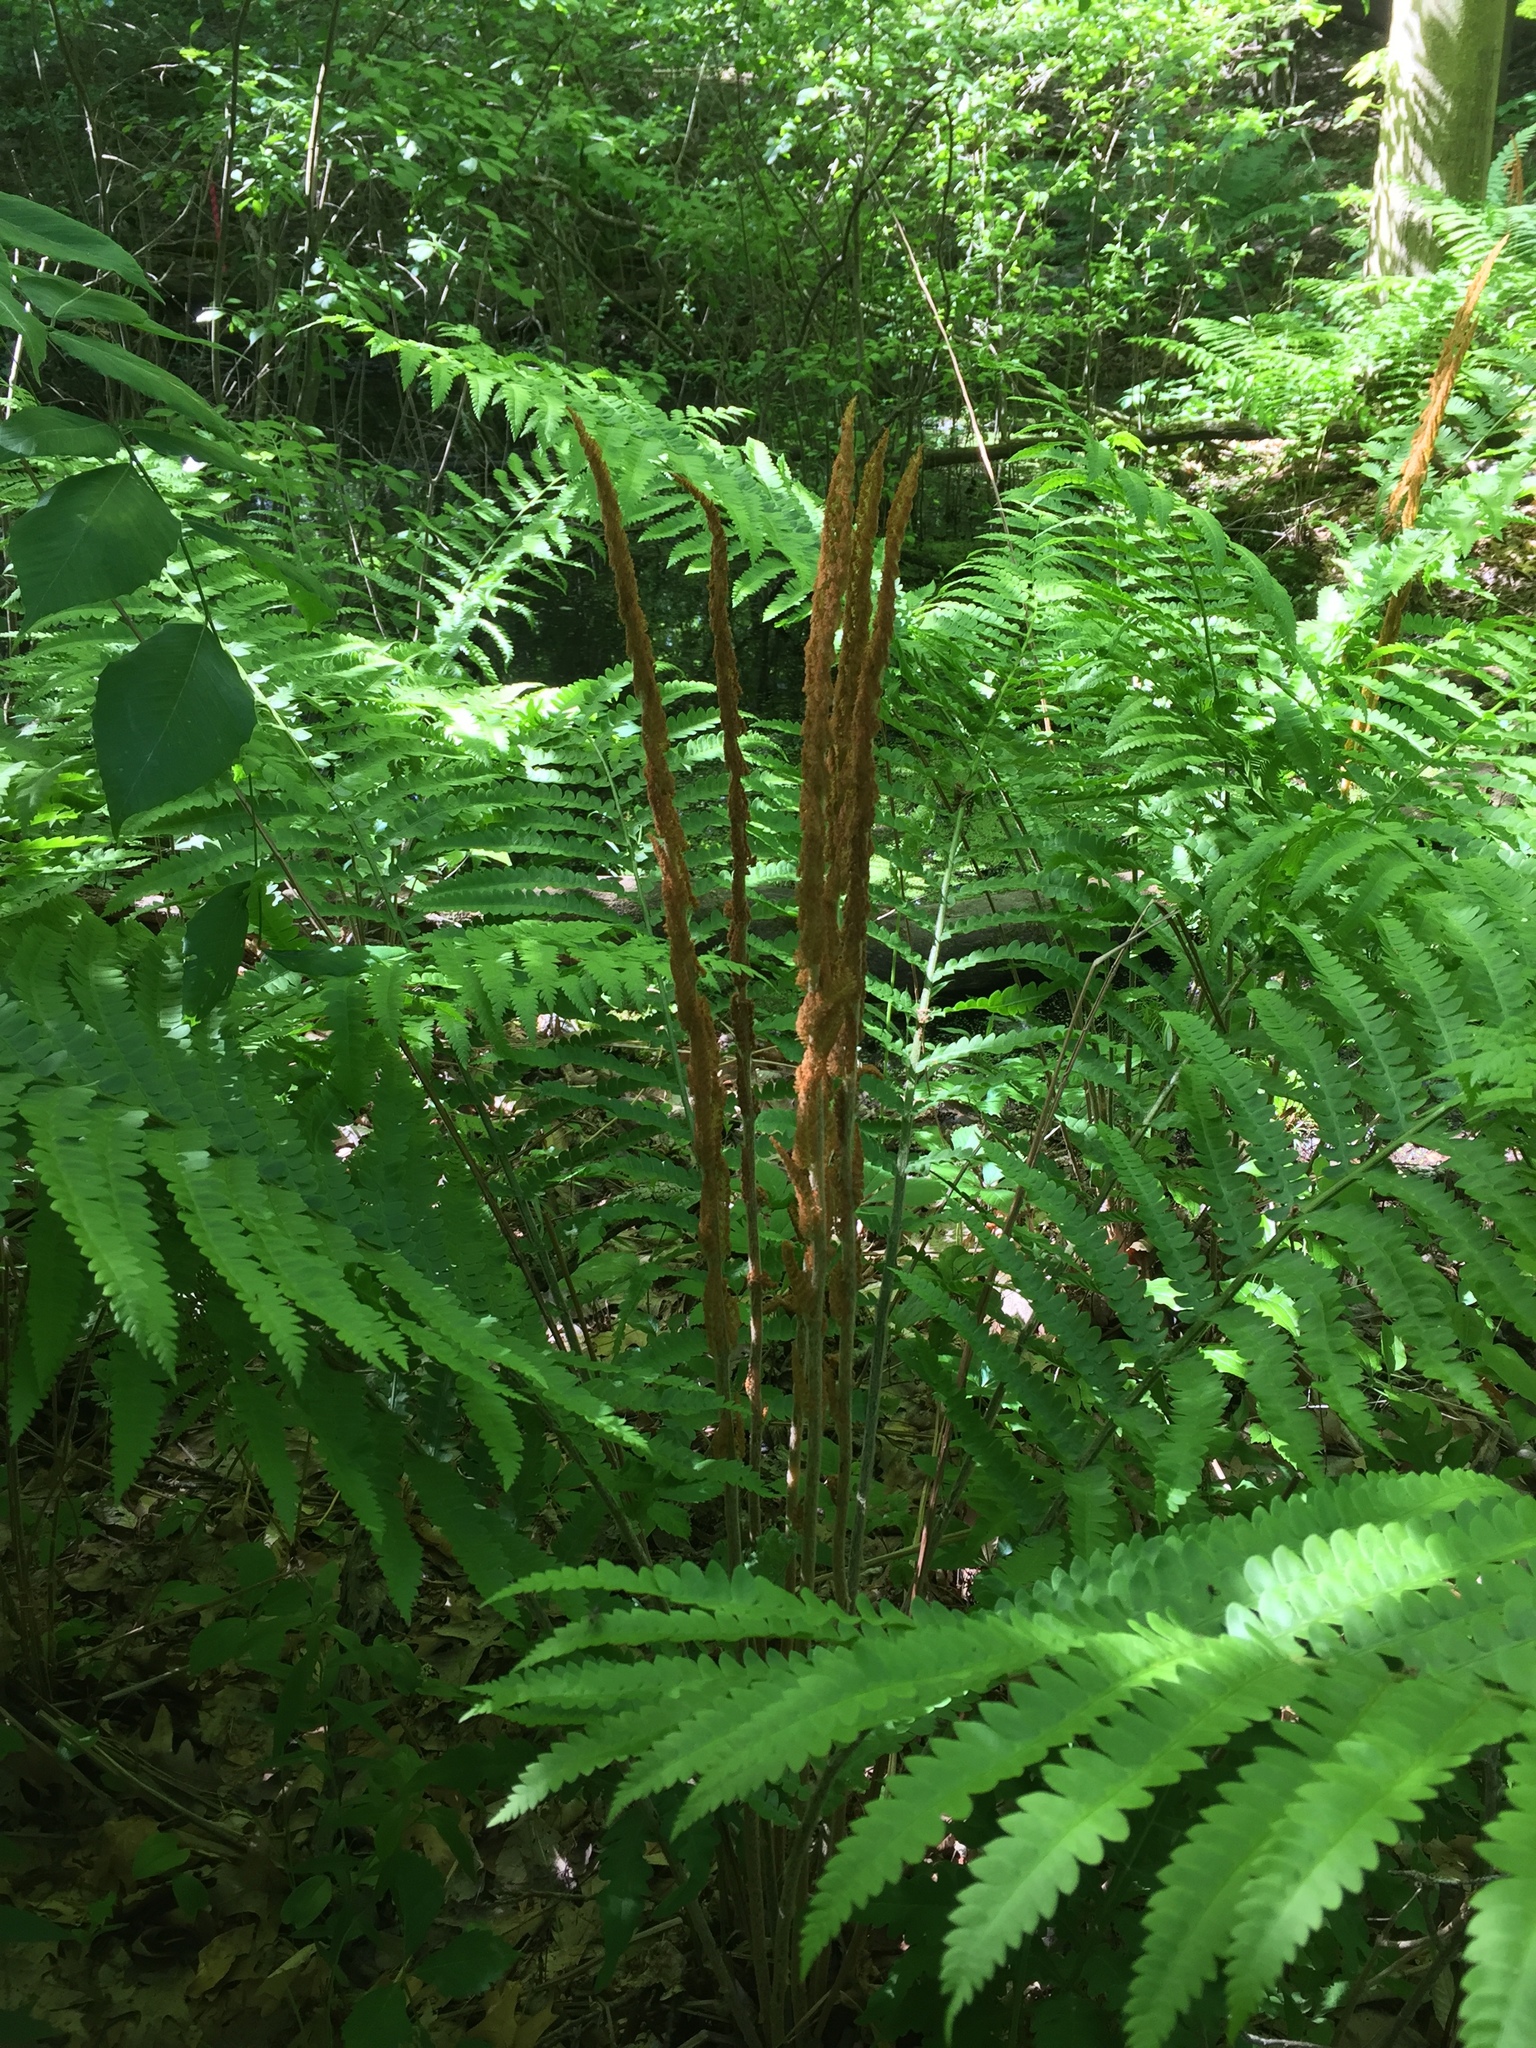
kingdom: Plantae
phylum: Tracheophyta
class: Polypodiopsida
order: Osmundales
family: Osmundaceae
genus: Osmundastrum
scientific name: Osmundastrum cinnamomeum
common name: Cinnamon fern
